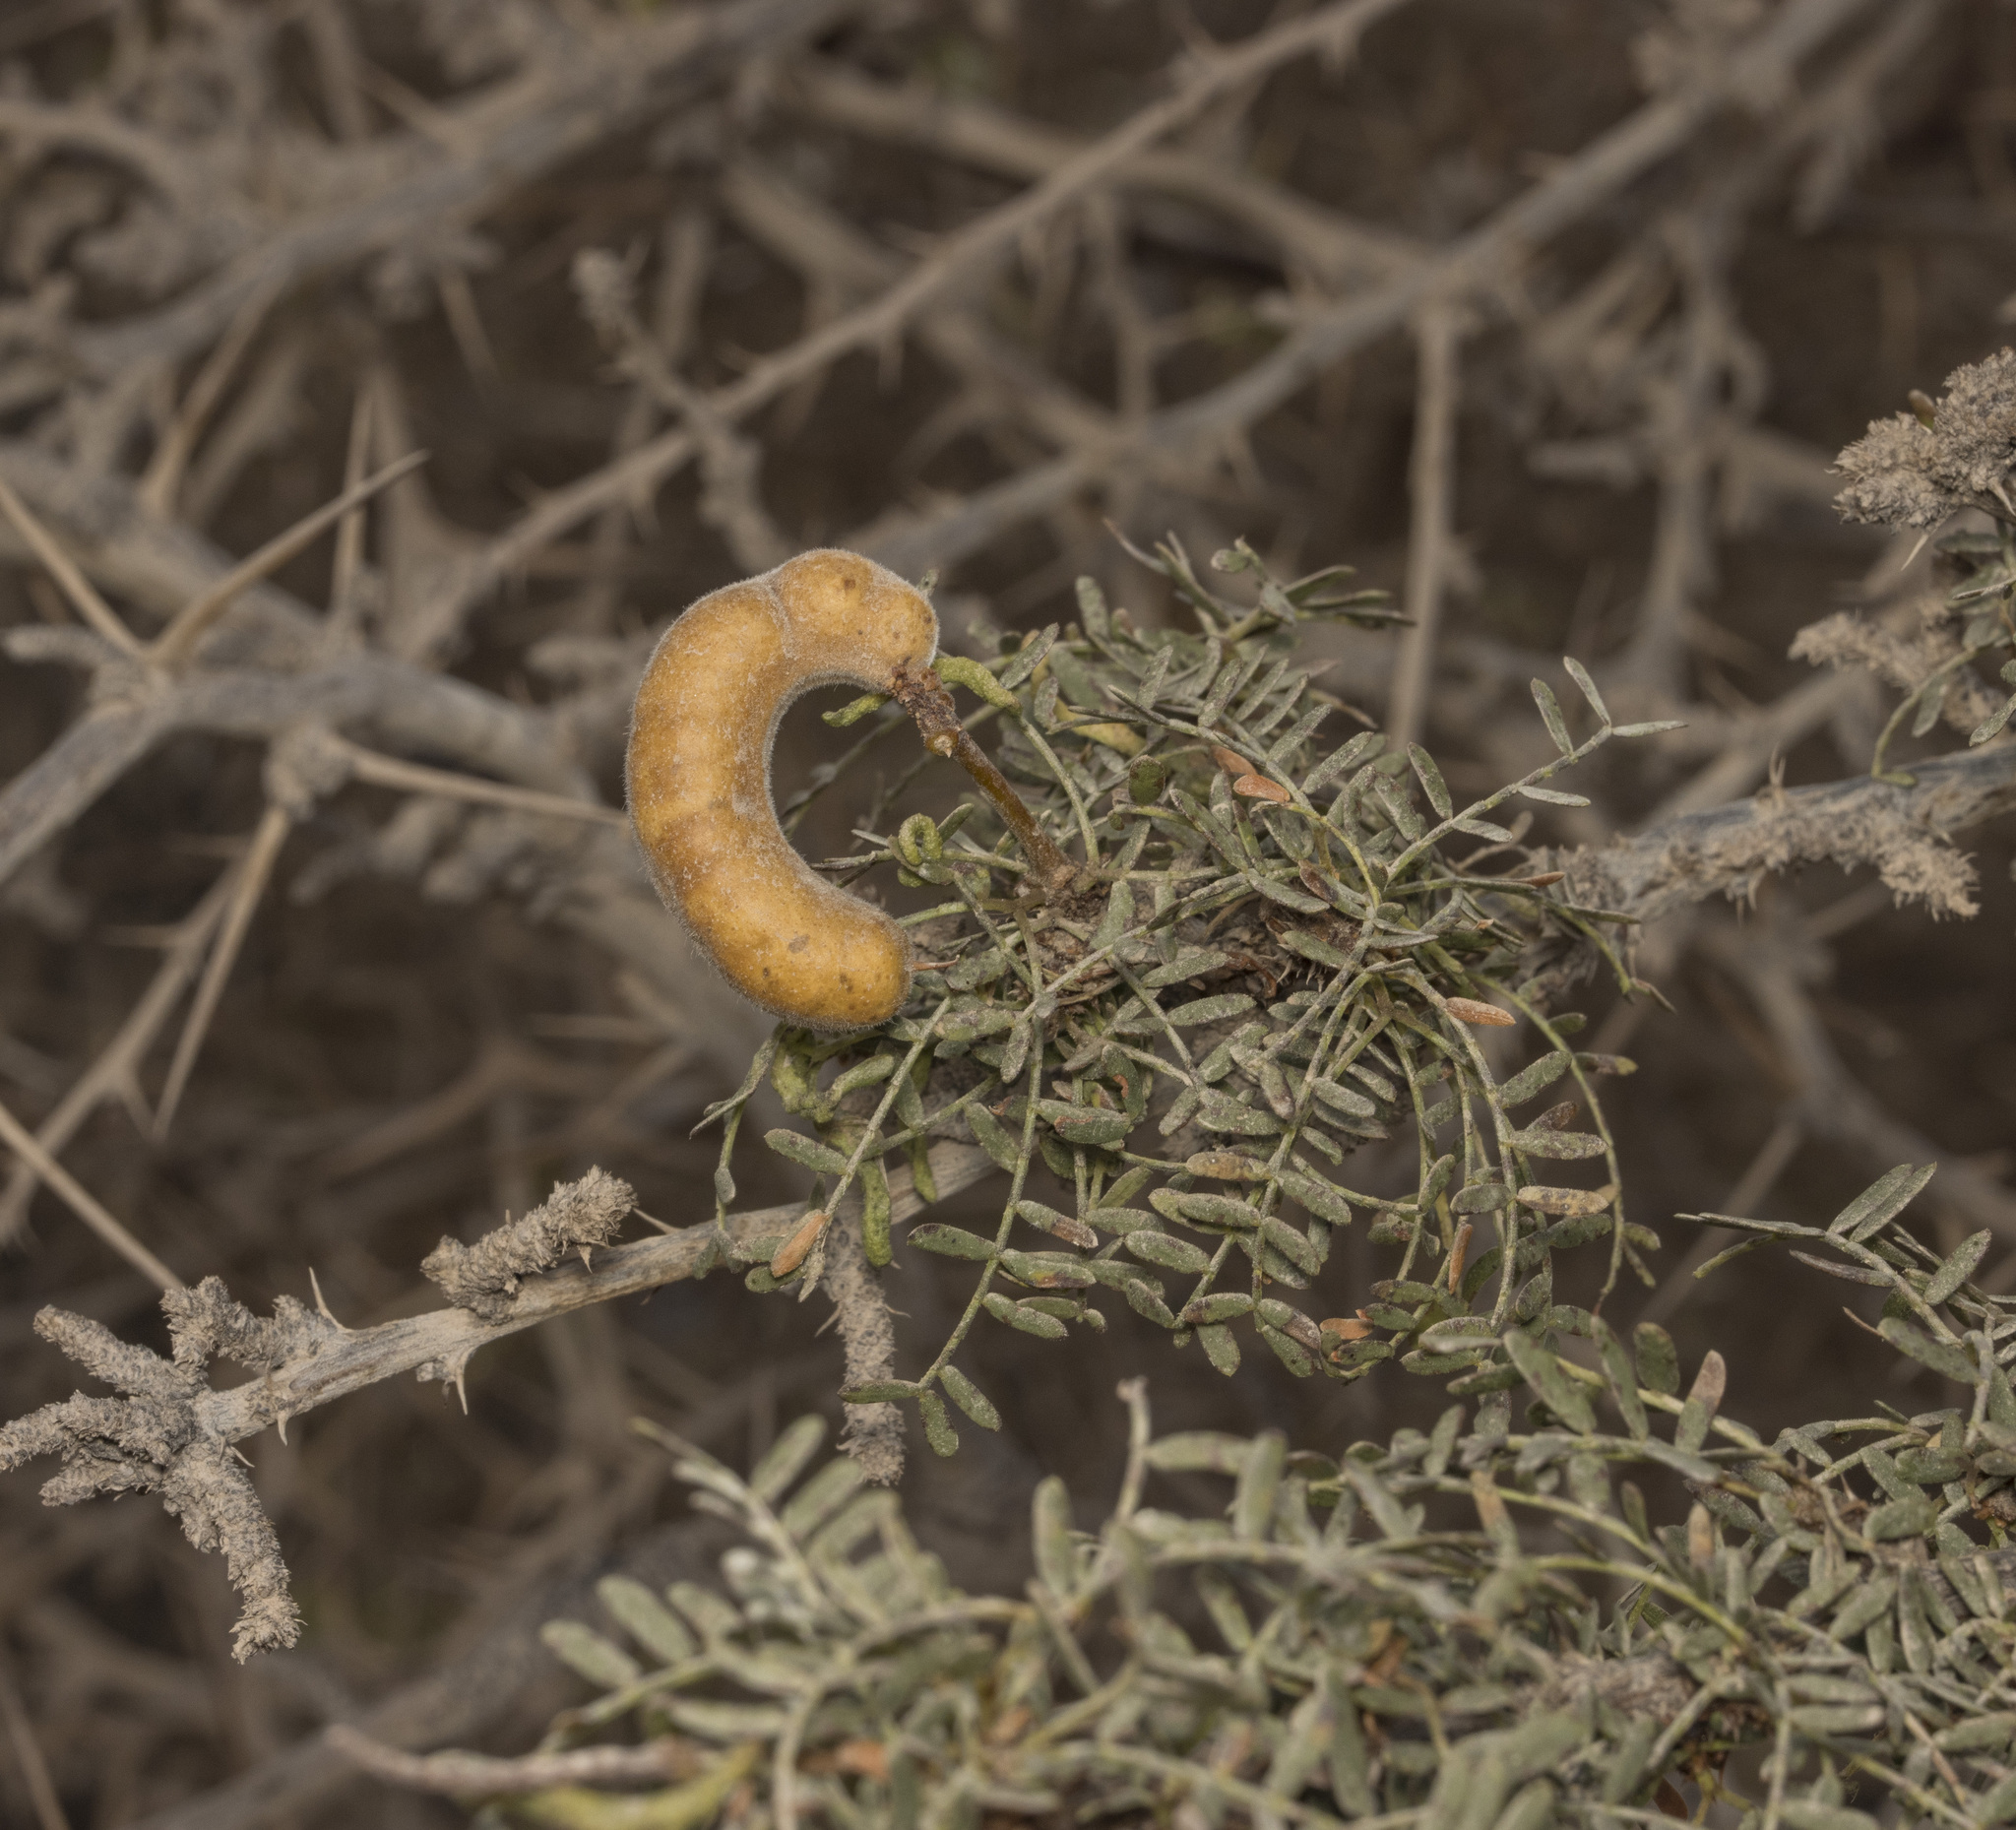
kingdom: Plantae
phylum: Tracheophyta
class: Magnoliopsida
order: Fabales
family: Fabaceae
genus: Prosopis
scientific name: Prosopis tamarugo
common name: Tamarugo
